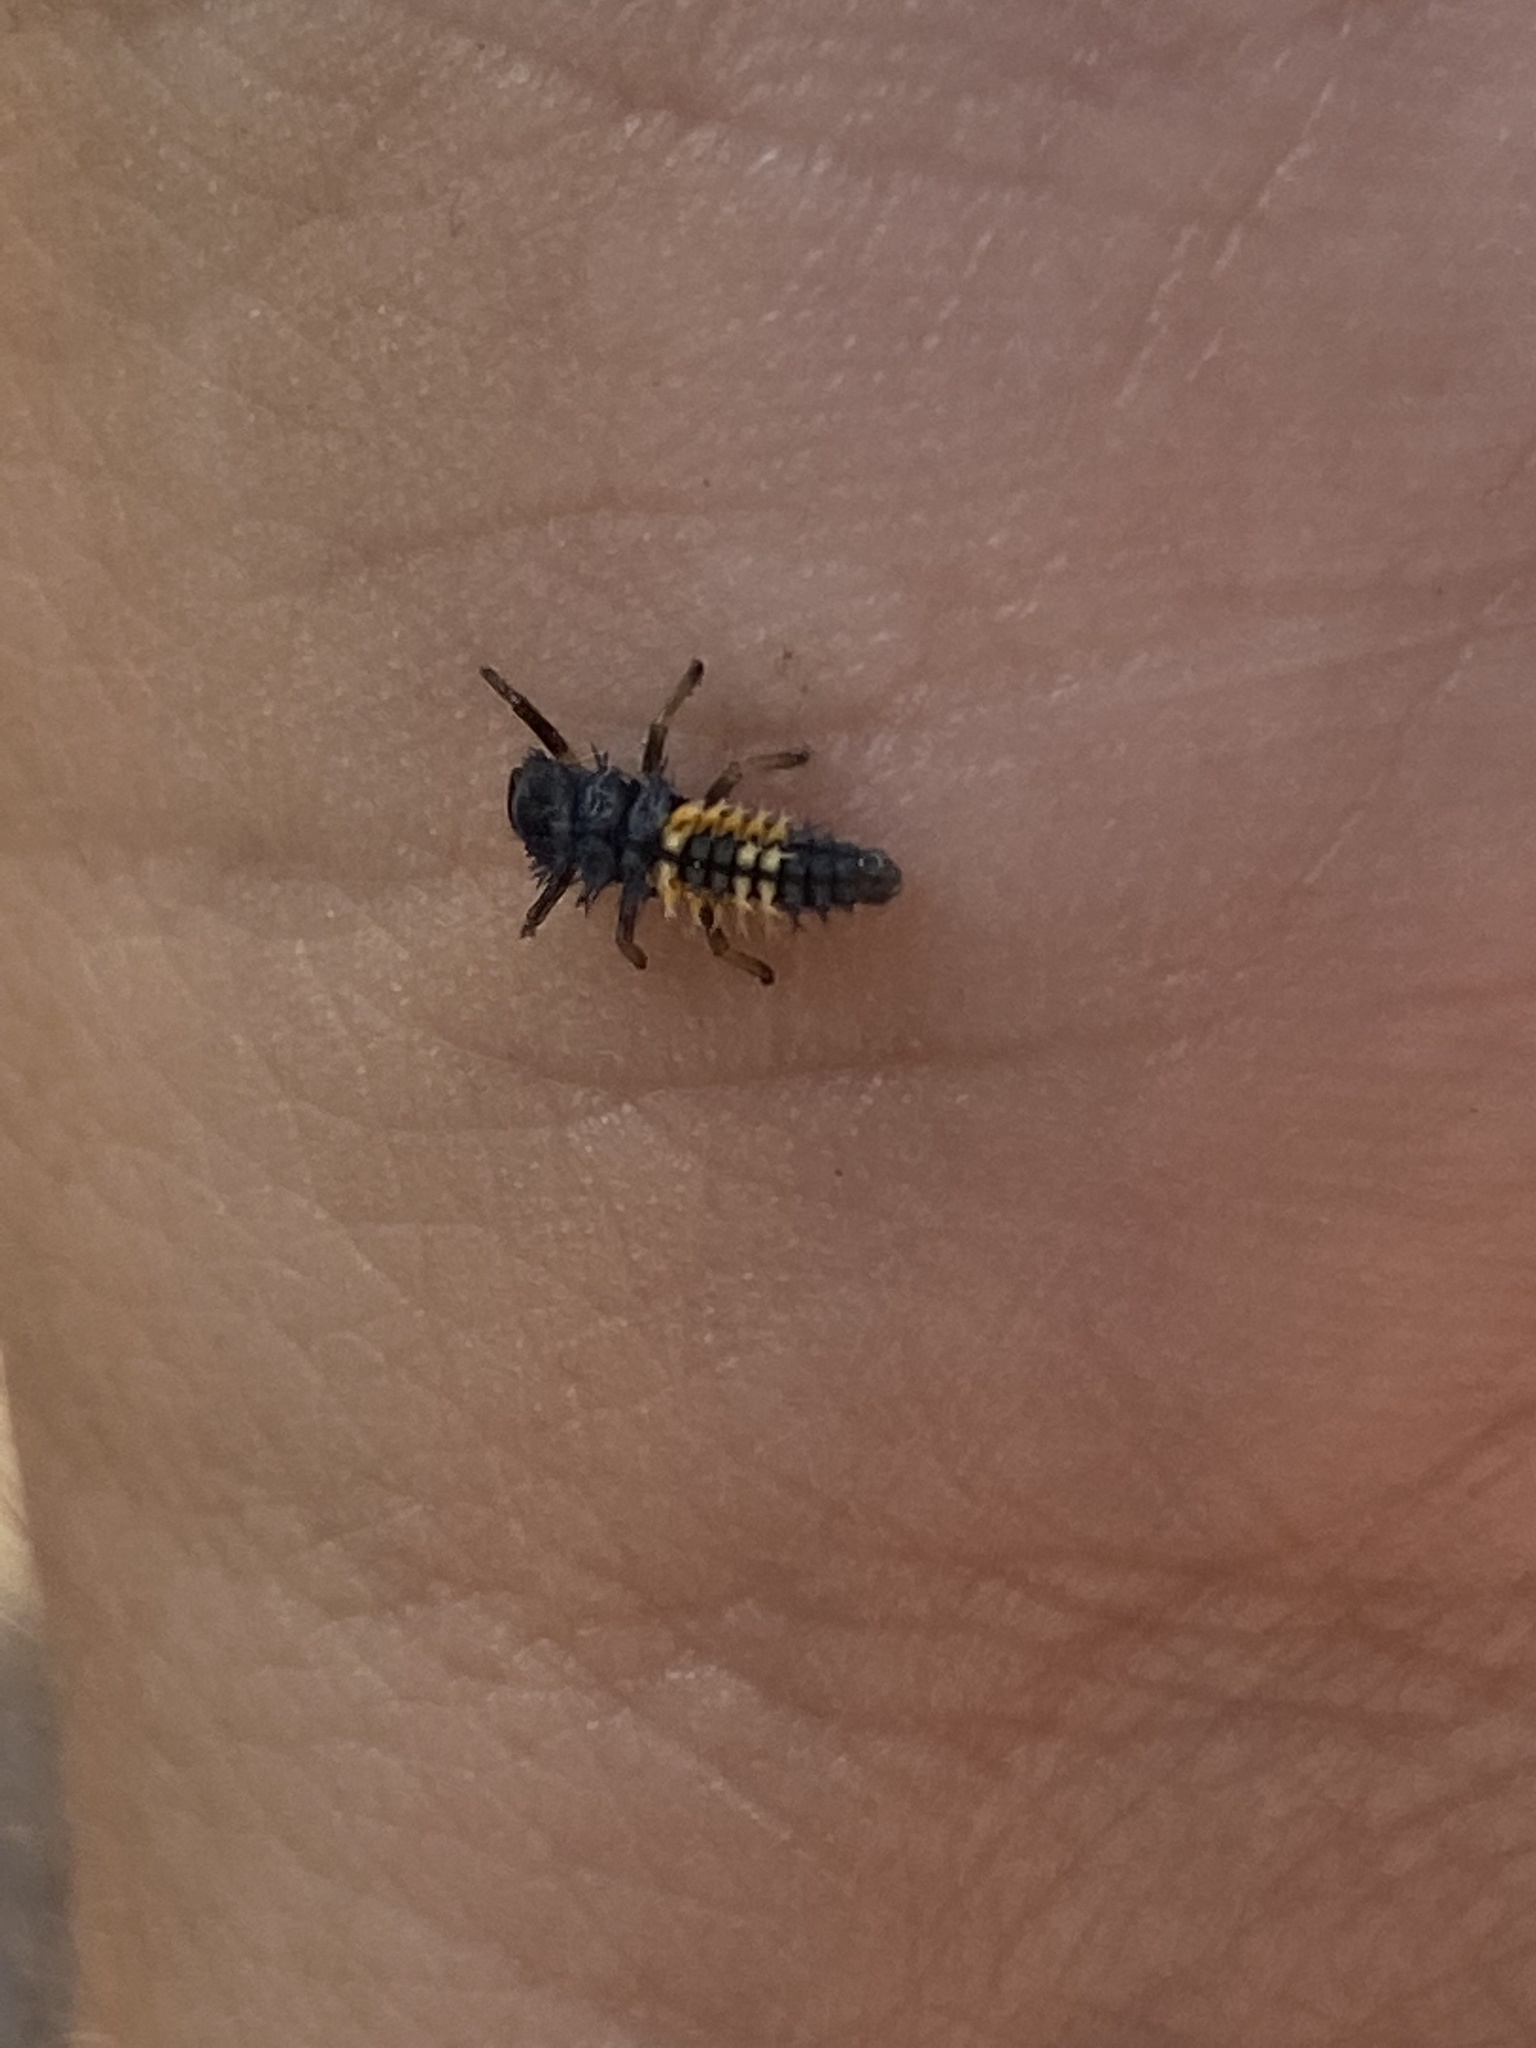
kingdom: Animalia
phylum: Arthropoda
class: Insecta
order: Coleoptera
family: Coccinellidae
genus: Harmonia
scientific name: Harmonia axyridis
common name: Harlequin ladybird
